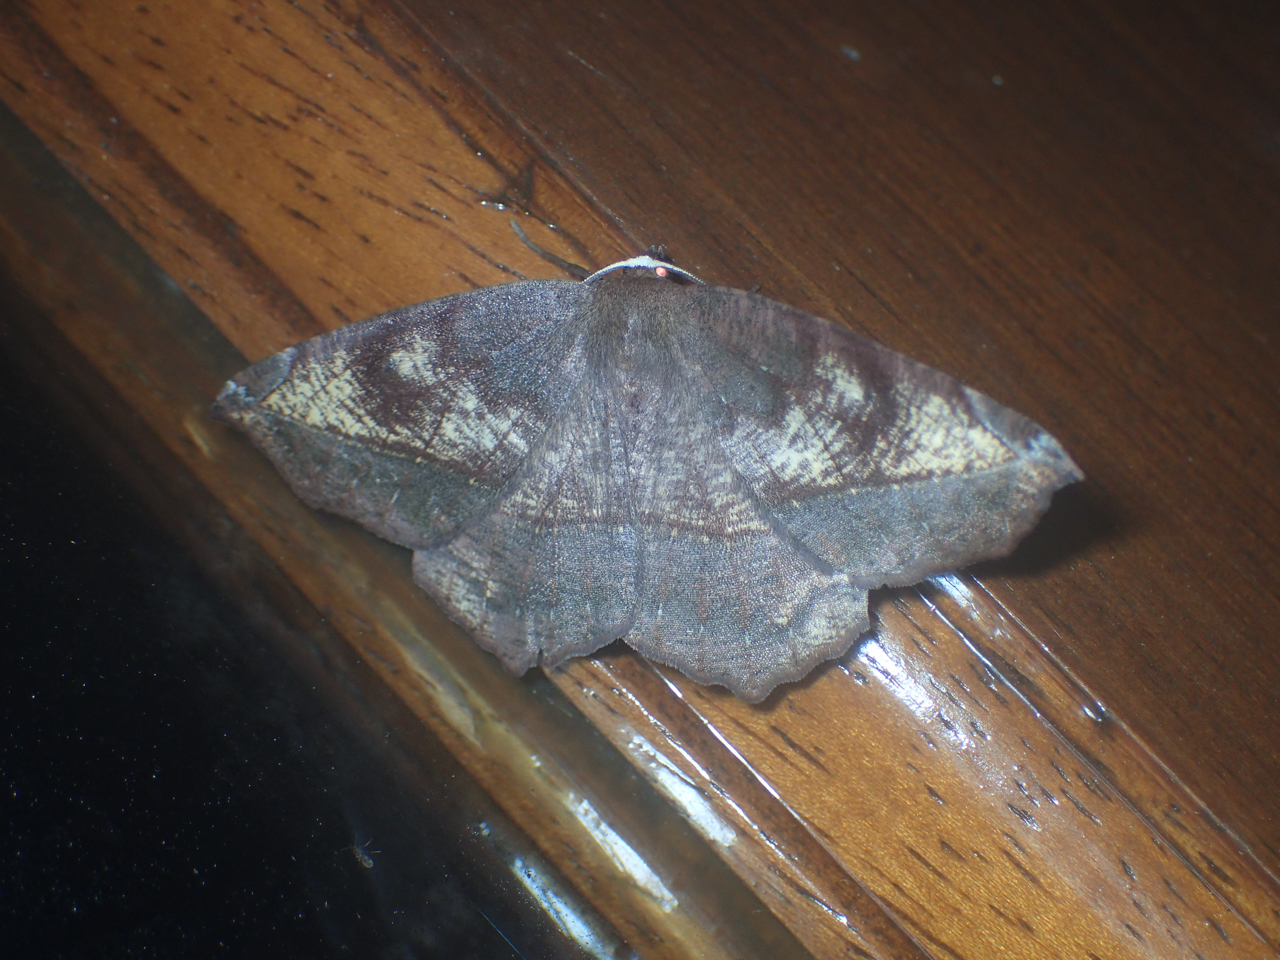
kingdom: Animalia
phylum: Arthropoda
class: Insecta
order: Lepidoptera
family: Geometridae
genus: Eutrapela
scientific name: Eutrapela clemataria
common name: Curved-toothed geometer
